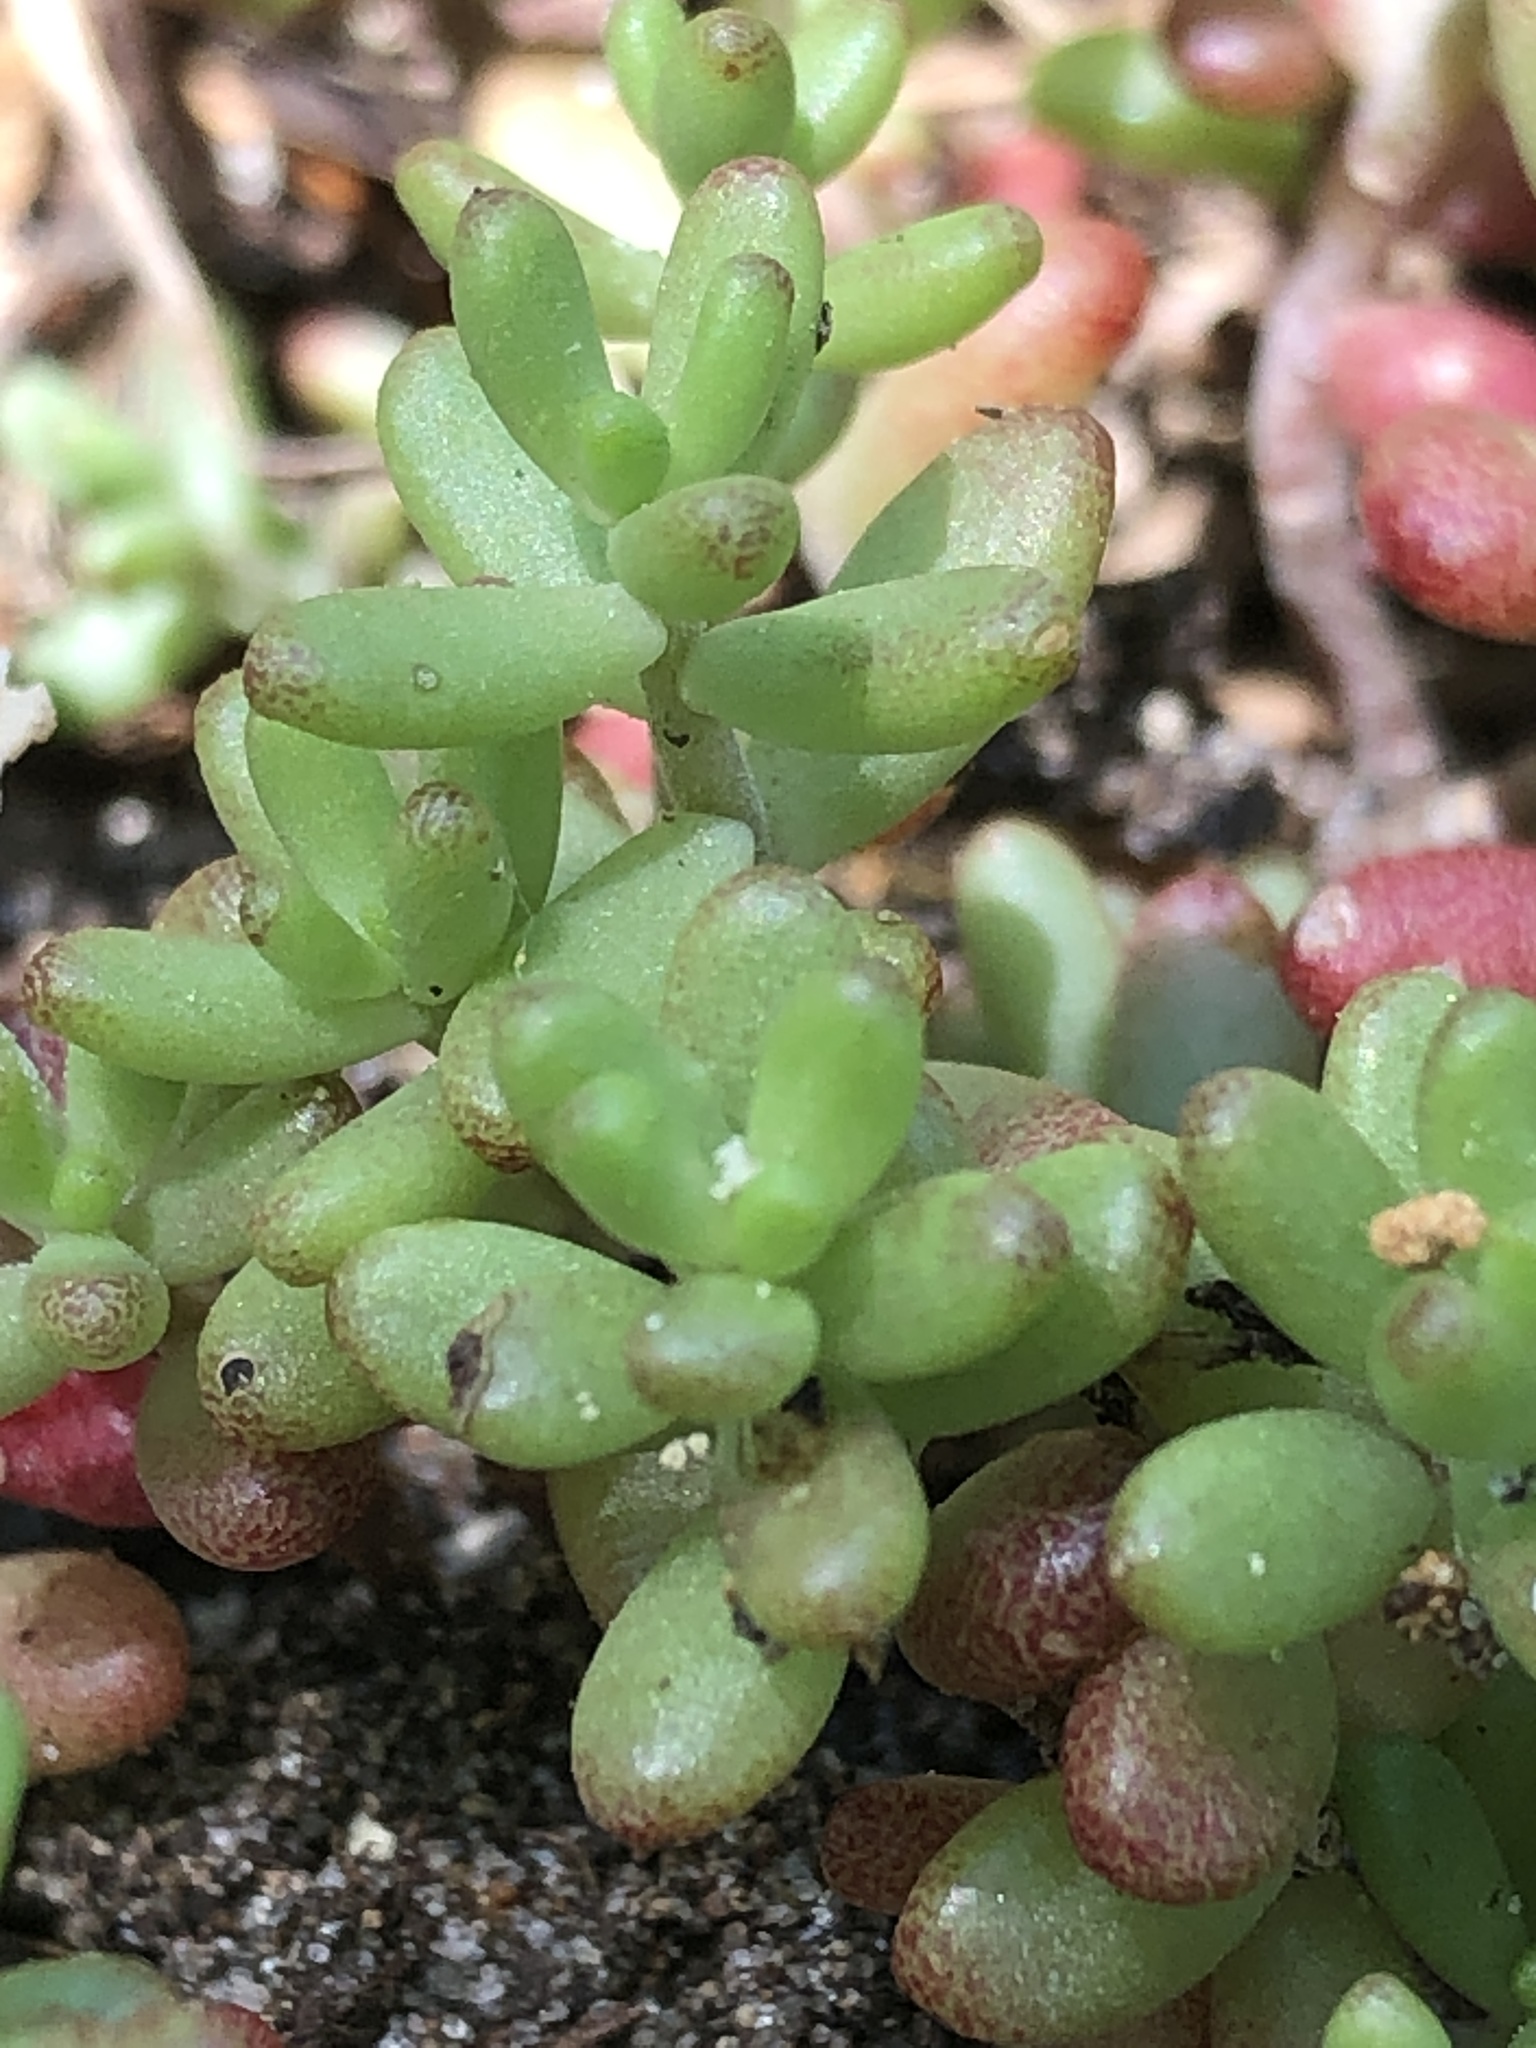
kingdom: Plantae
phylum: Tracheophyta
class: Magnoliopsida
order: Saxifragales
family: Crassulaceae
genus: Sedum
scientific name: Sedum album
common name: White stonecrop
